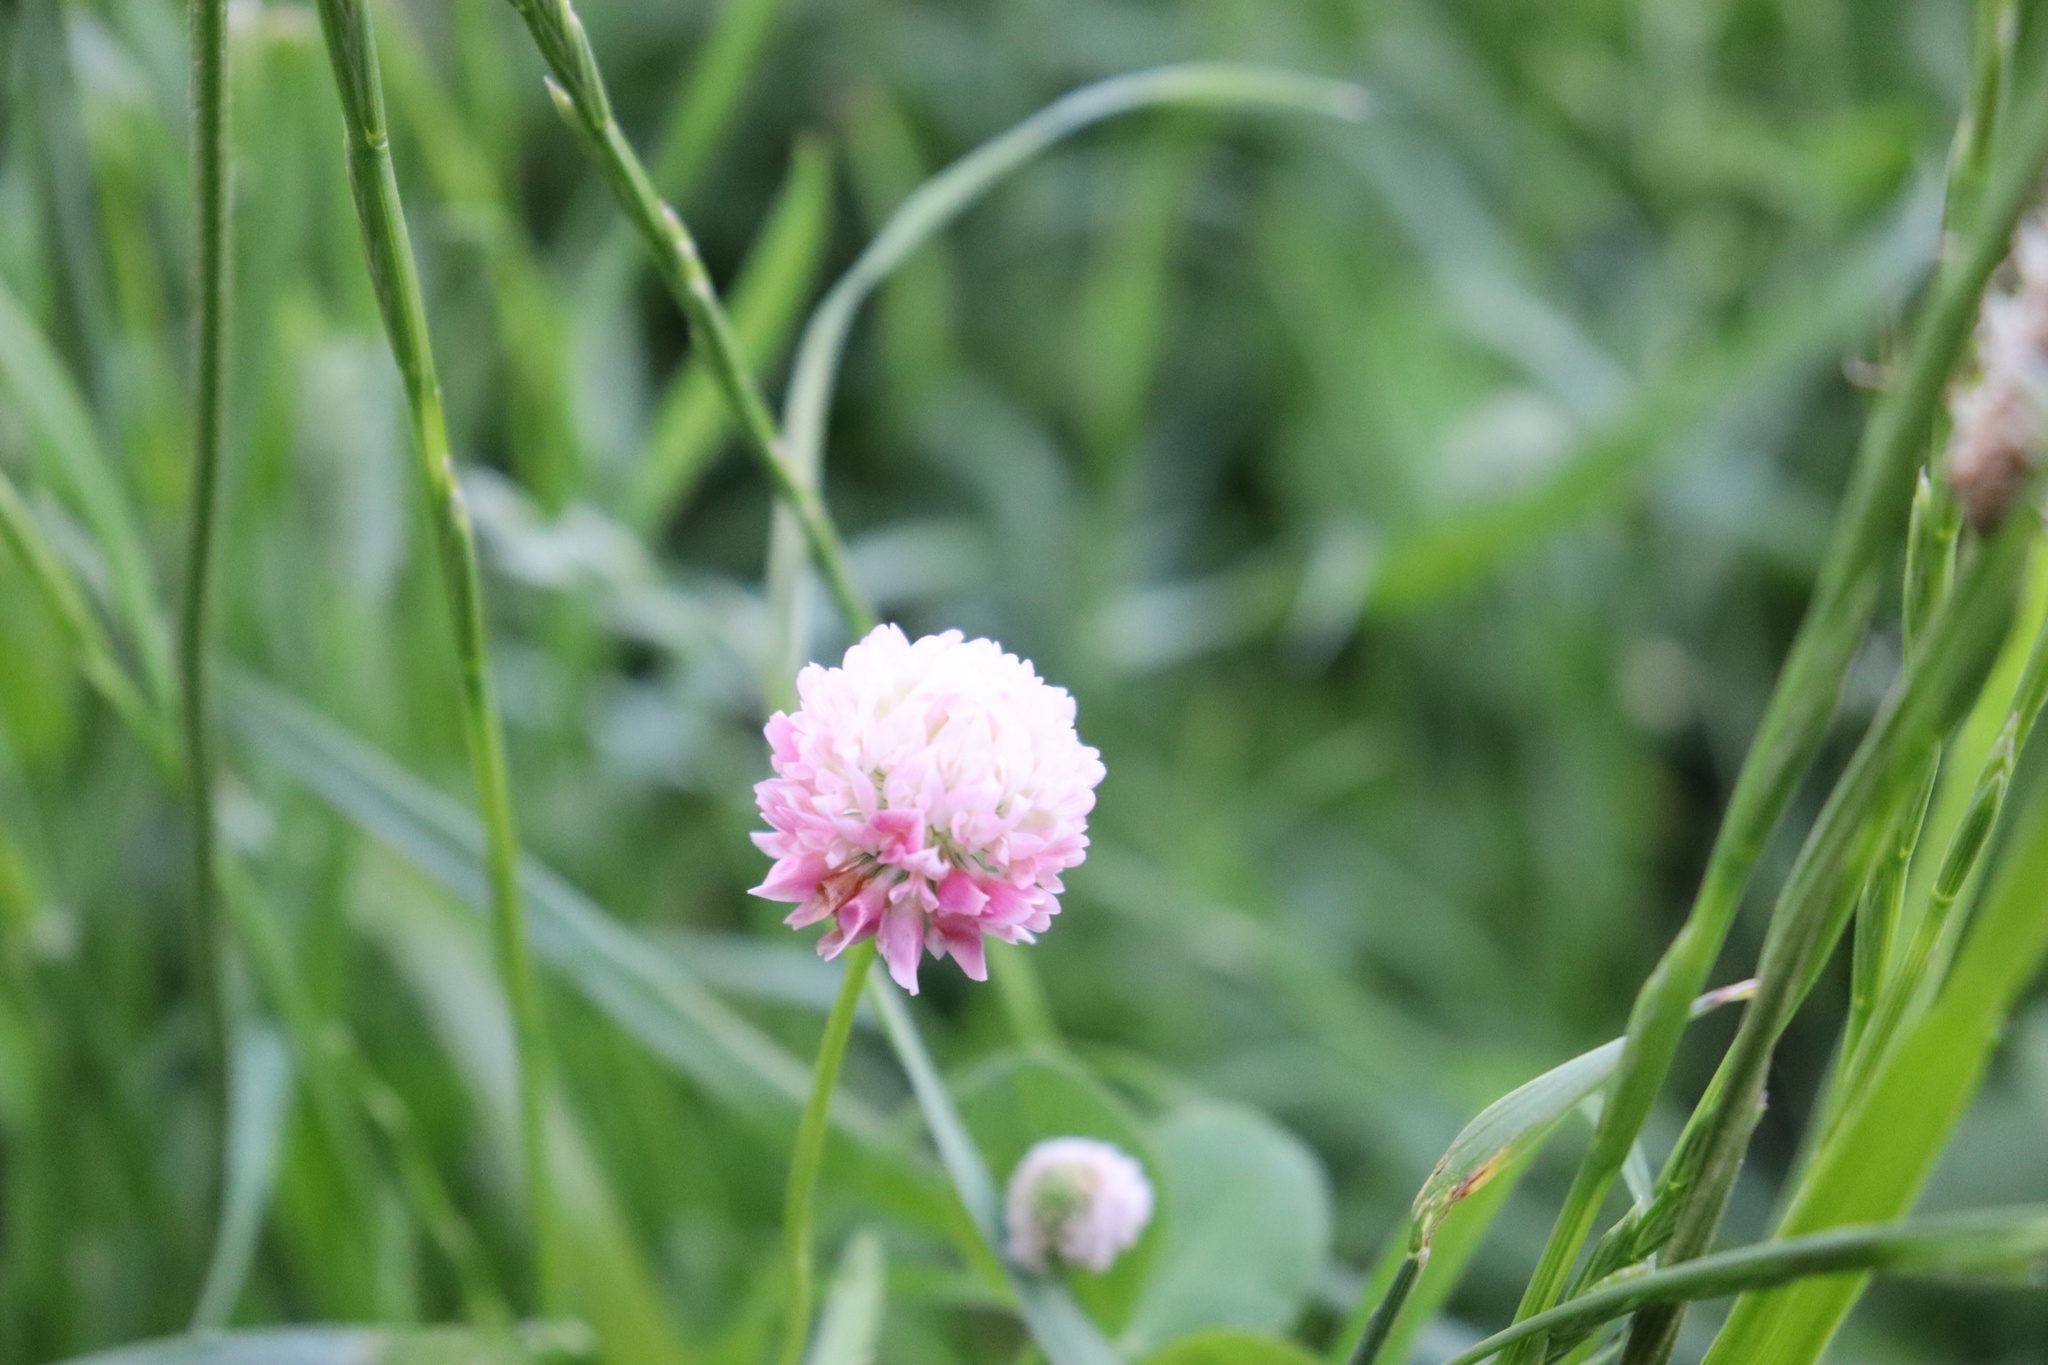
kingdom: Plantae
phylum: Tracheophyta
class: Magnoliopsida
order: Fabales
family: Fabaceae
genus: Trifolium
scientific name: Trifolium hybridum
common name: Alsike clover
